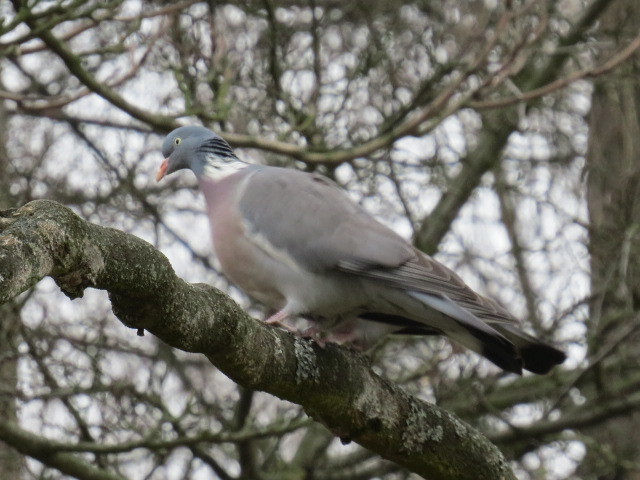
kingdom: Animalia
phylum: Chordata
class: Aves
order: Columbiformes
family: Columbidae
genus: Columba
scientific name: Columba palumbus
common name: Common wood pigeon
